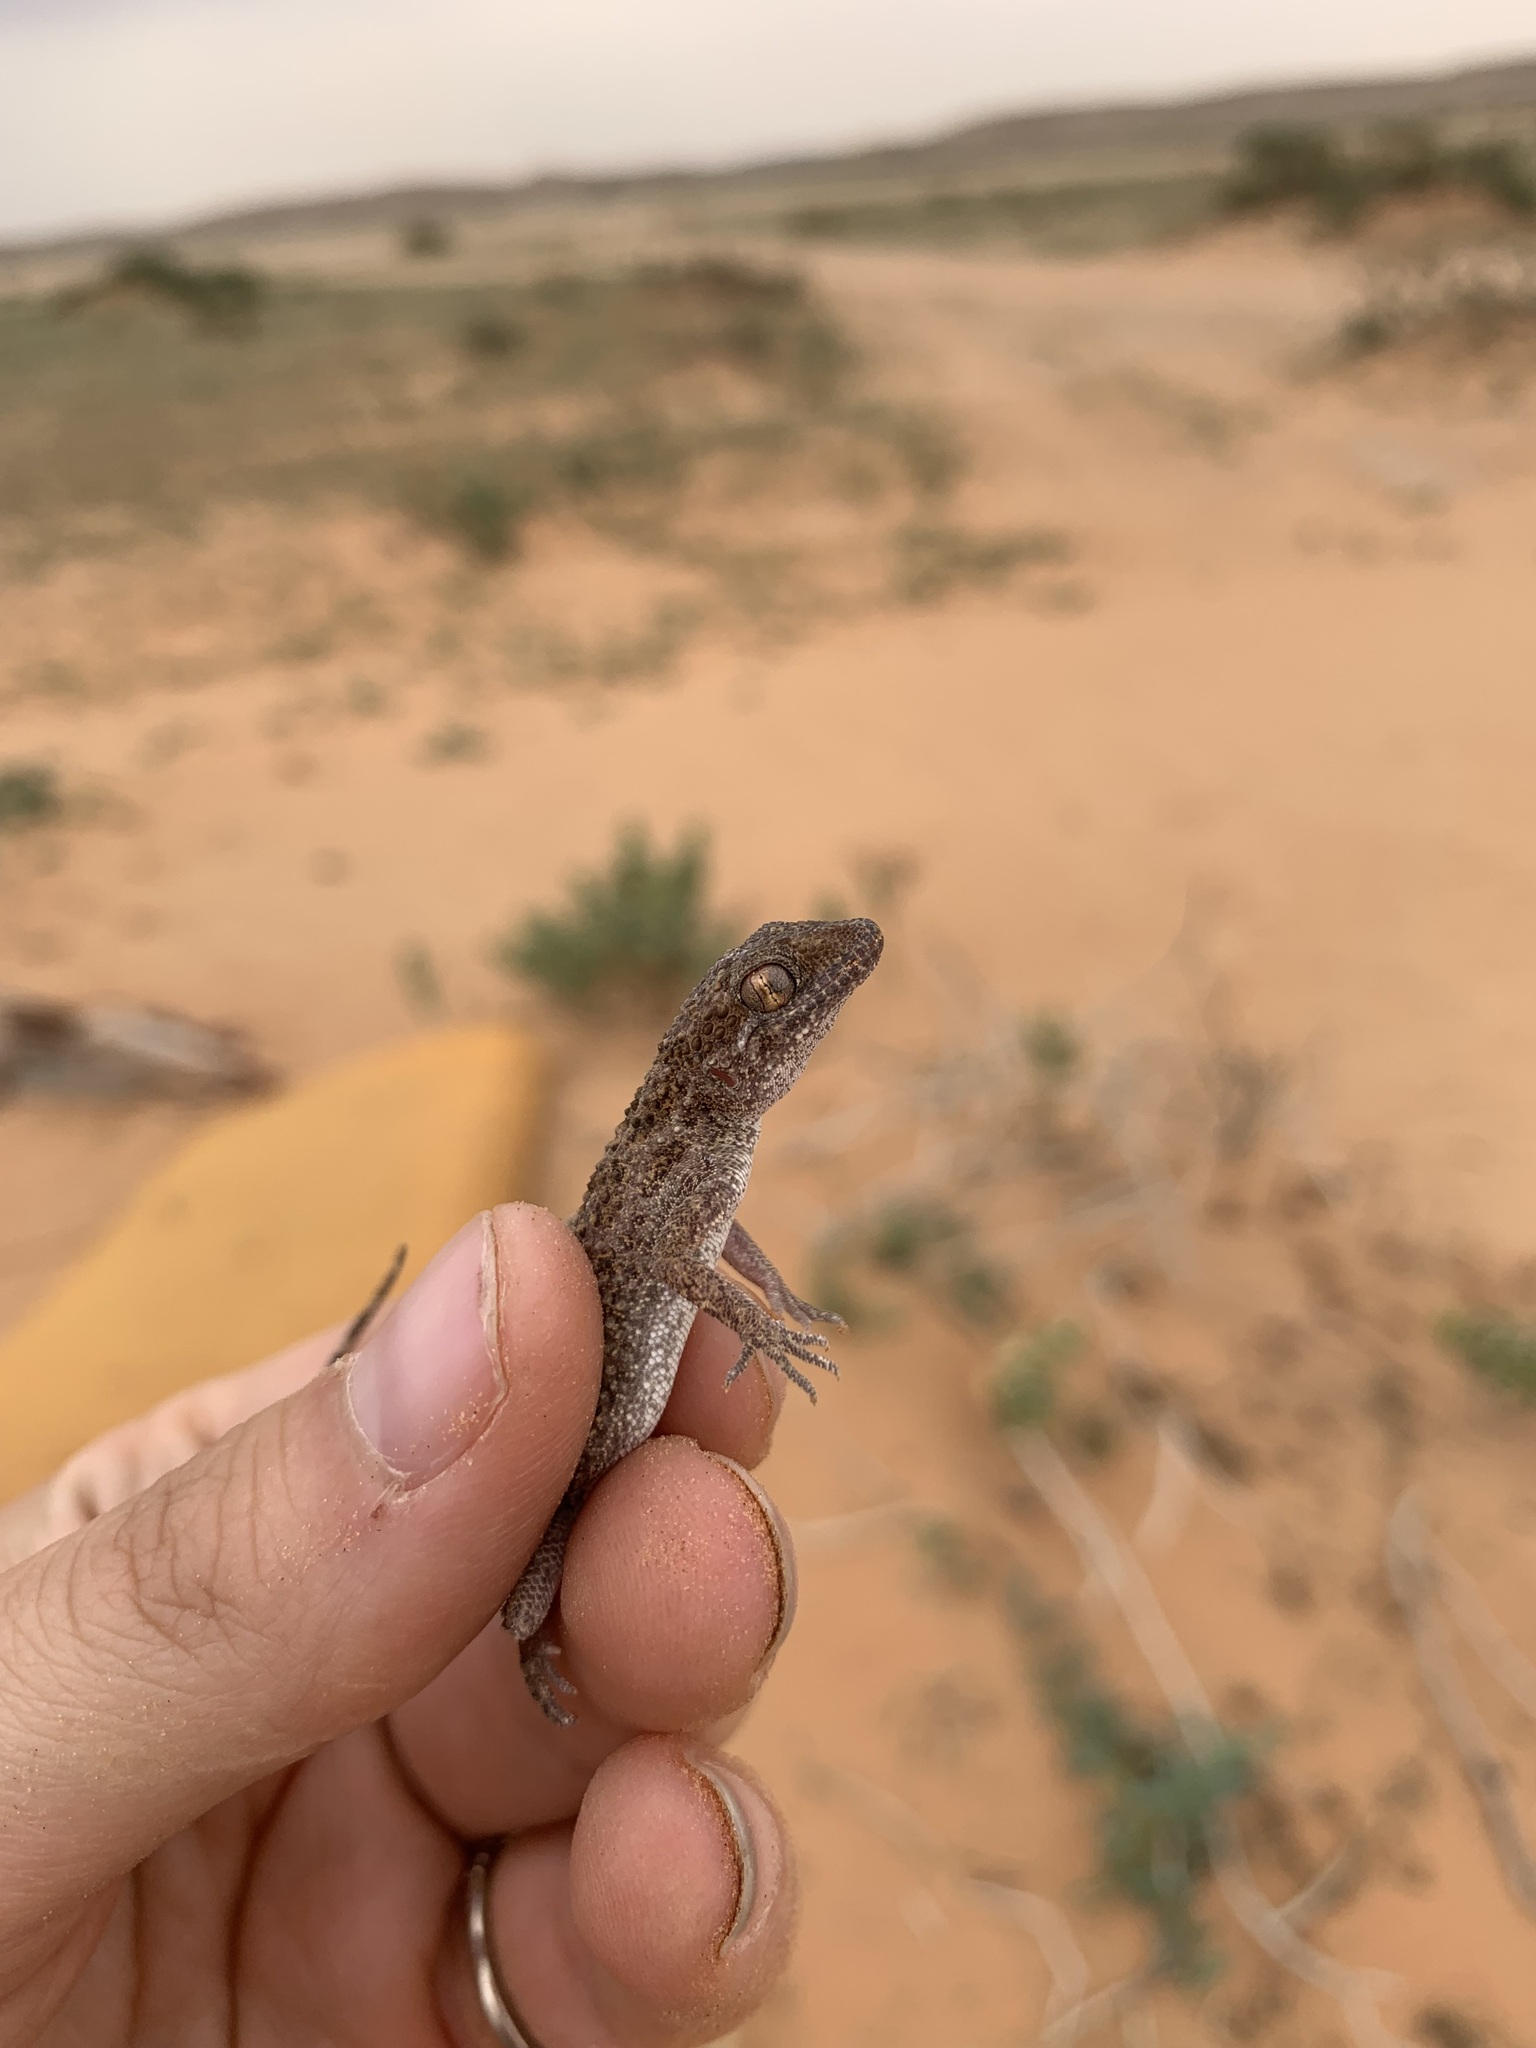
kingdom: Animalia
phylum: Chordata
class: Squamata
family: Gekkonidae
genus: Bunopus
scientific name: Bunopus tuberculatus
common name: Southern tuberculated gecko
